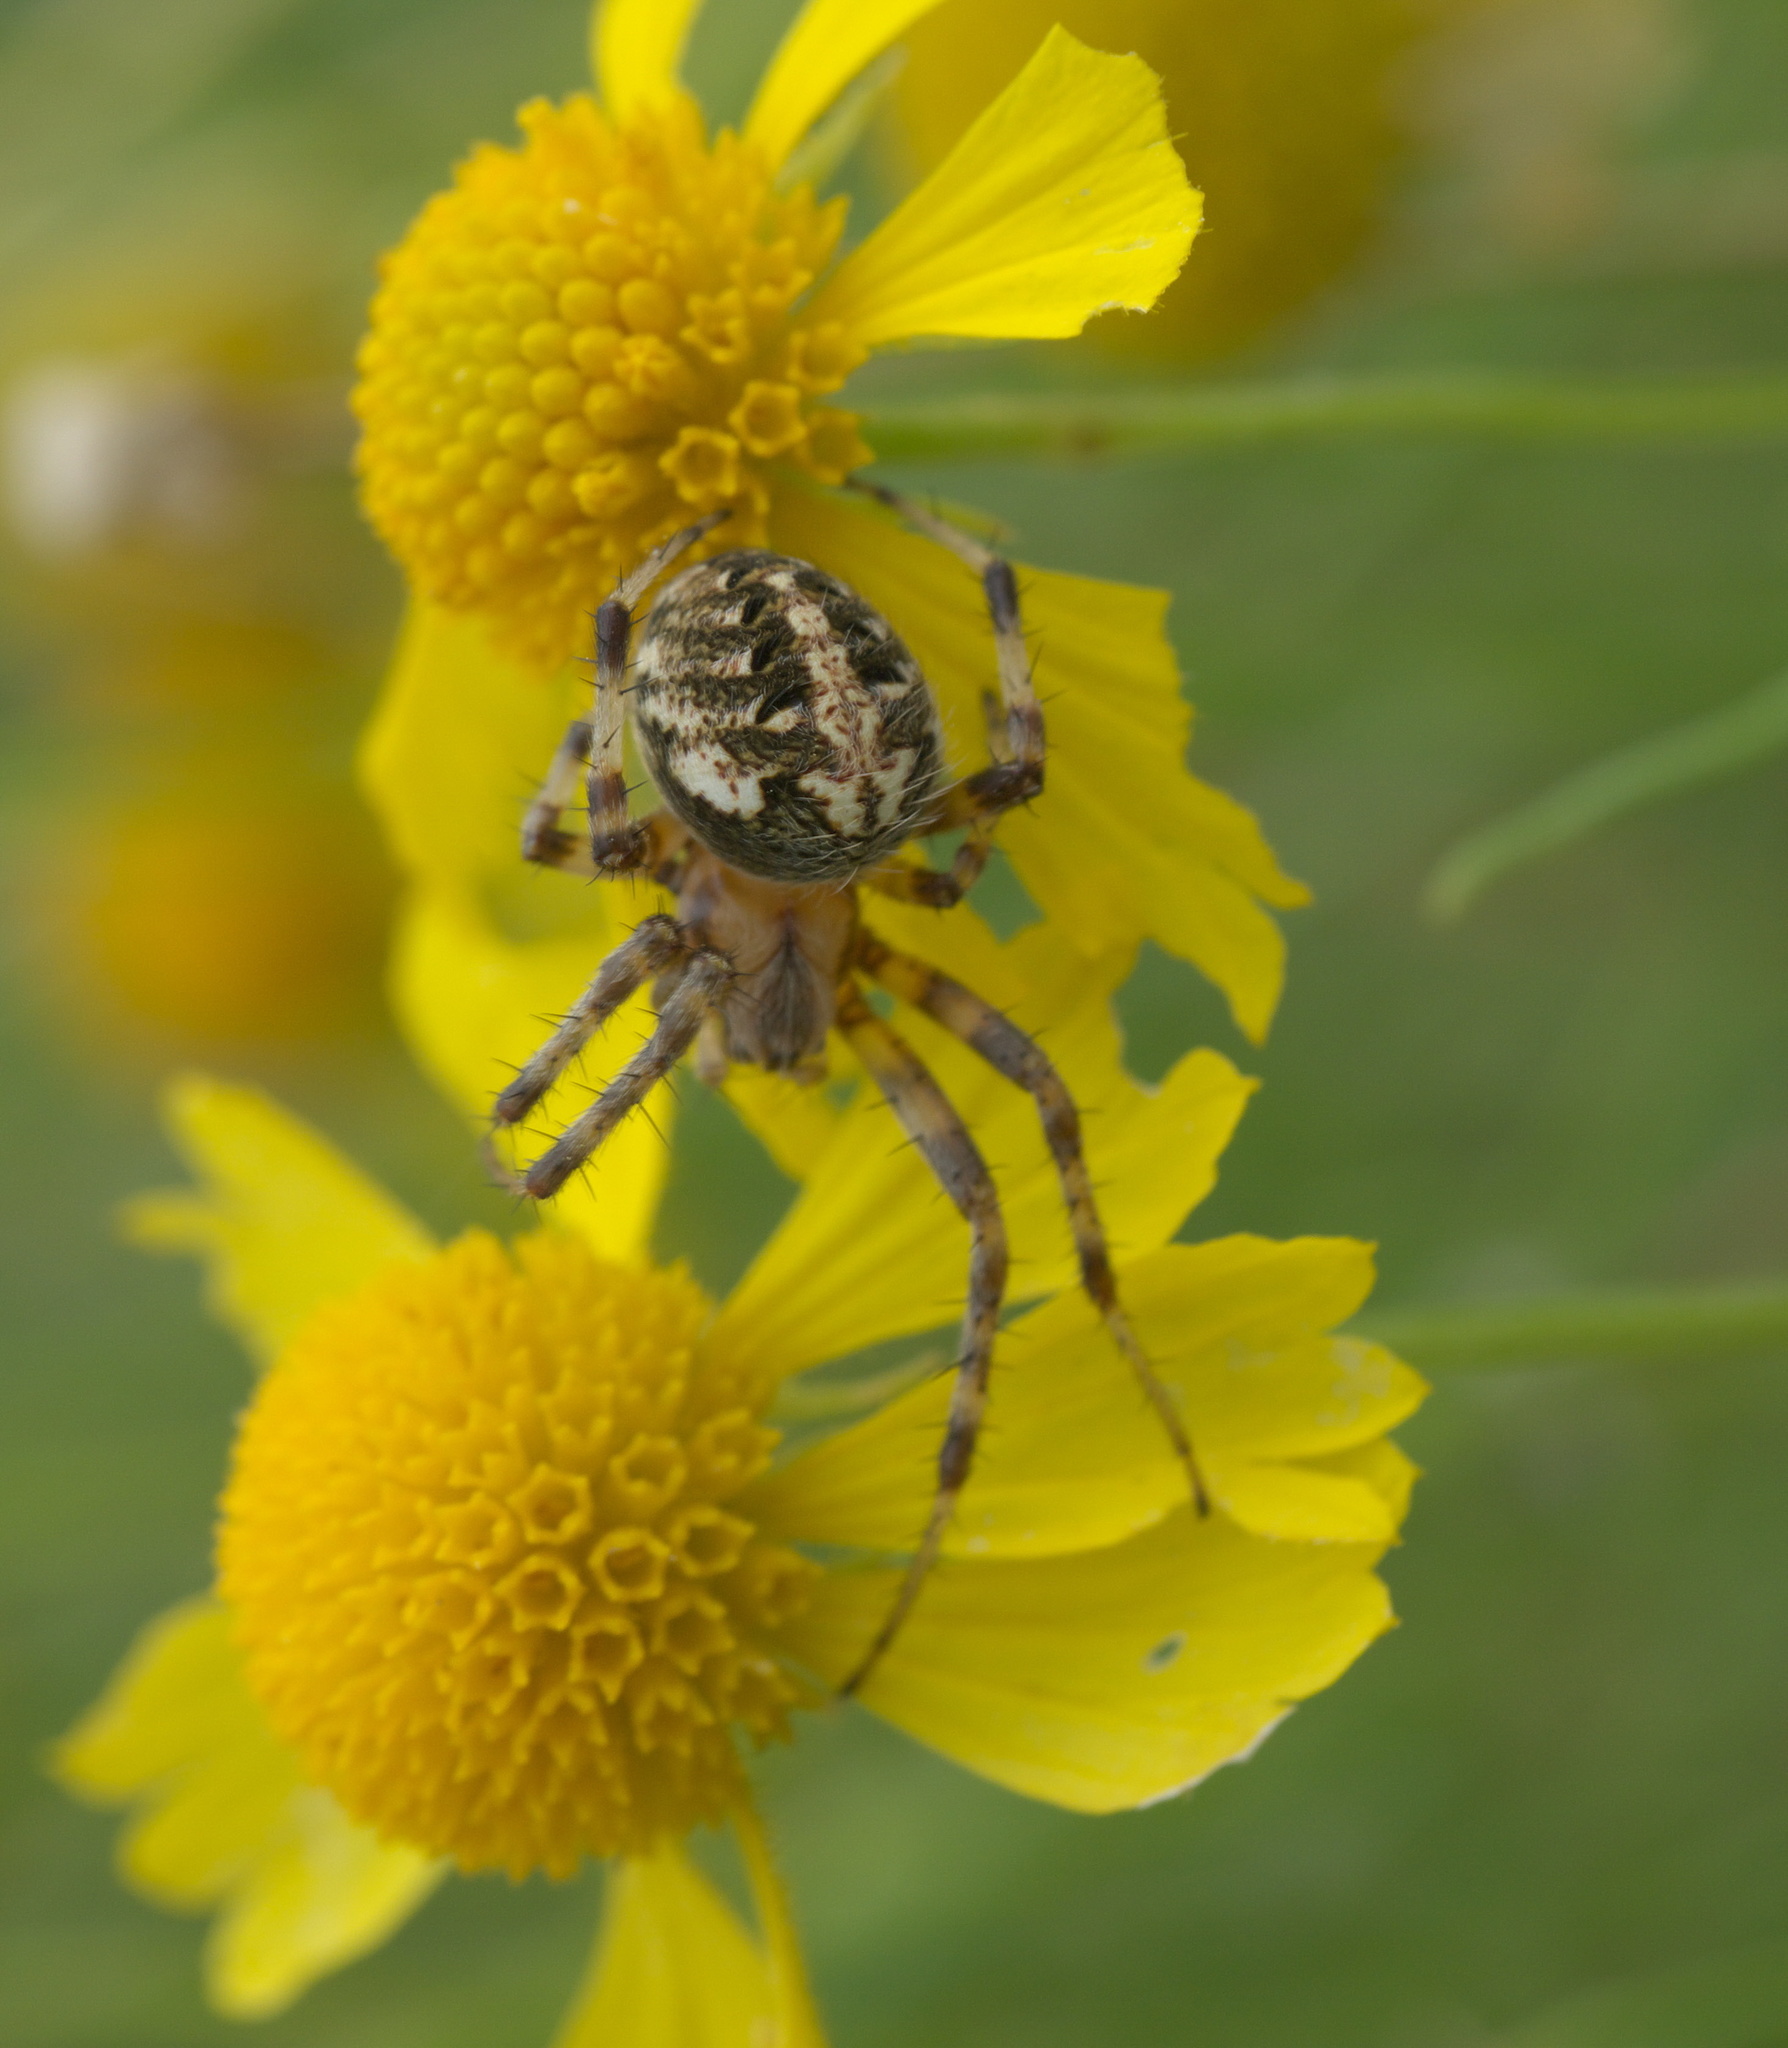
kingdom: Animalia
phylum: Arthropoda
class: Arachnida
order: Araneae
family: Araneidae
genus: Neoscona
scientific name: Neoscona arabesca
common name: Orb weavers
